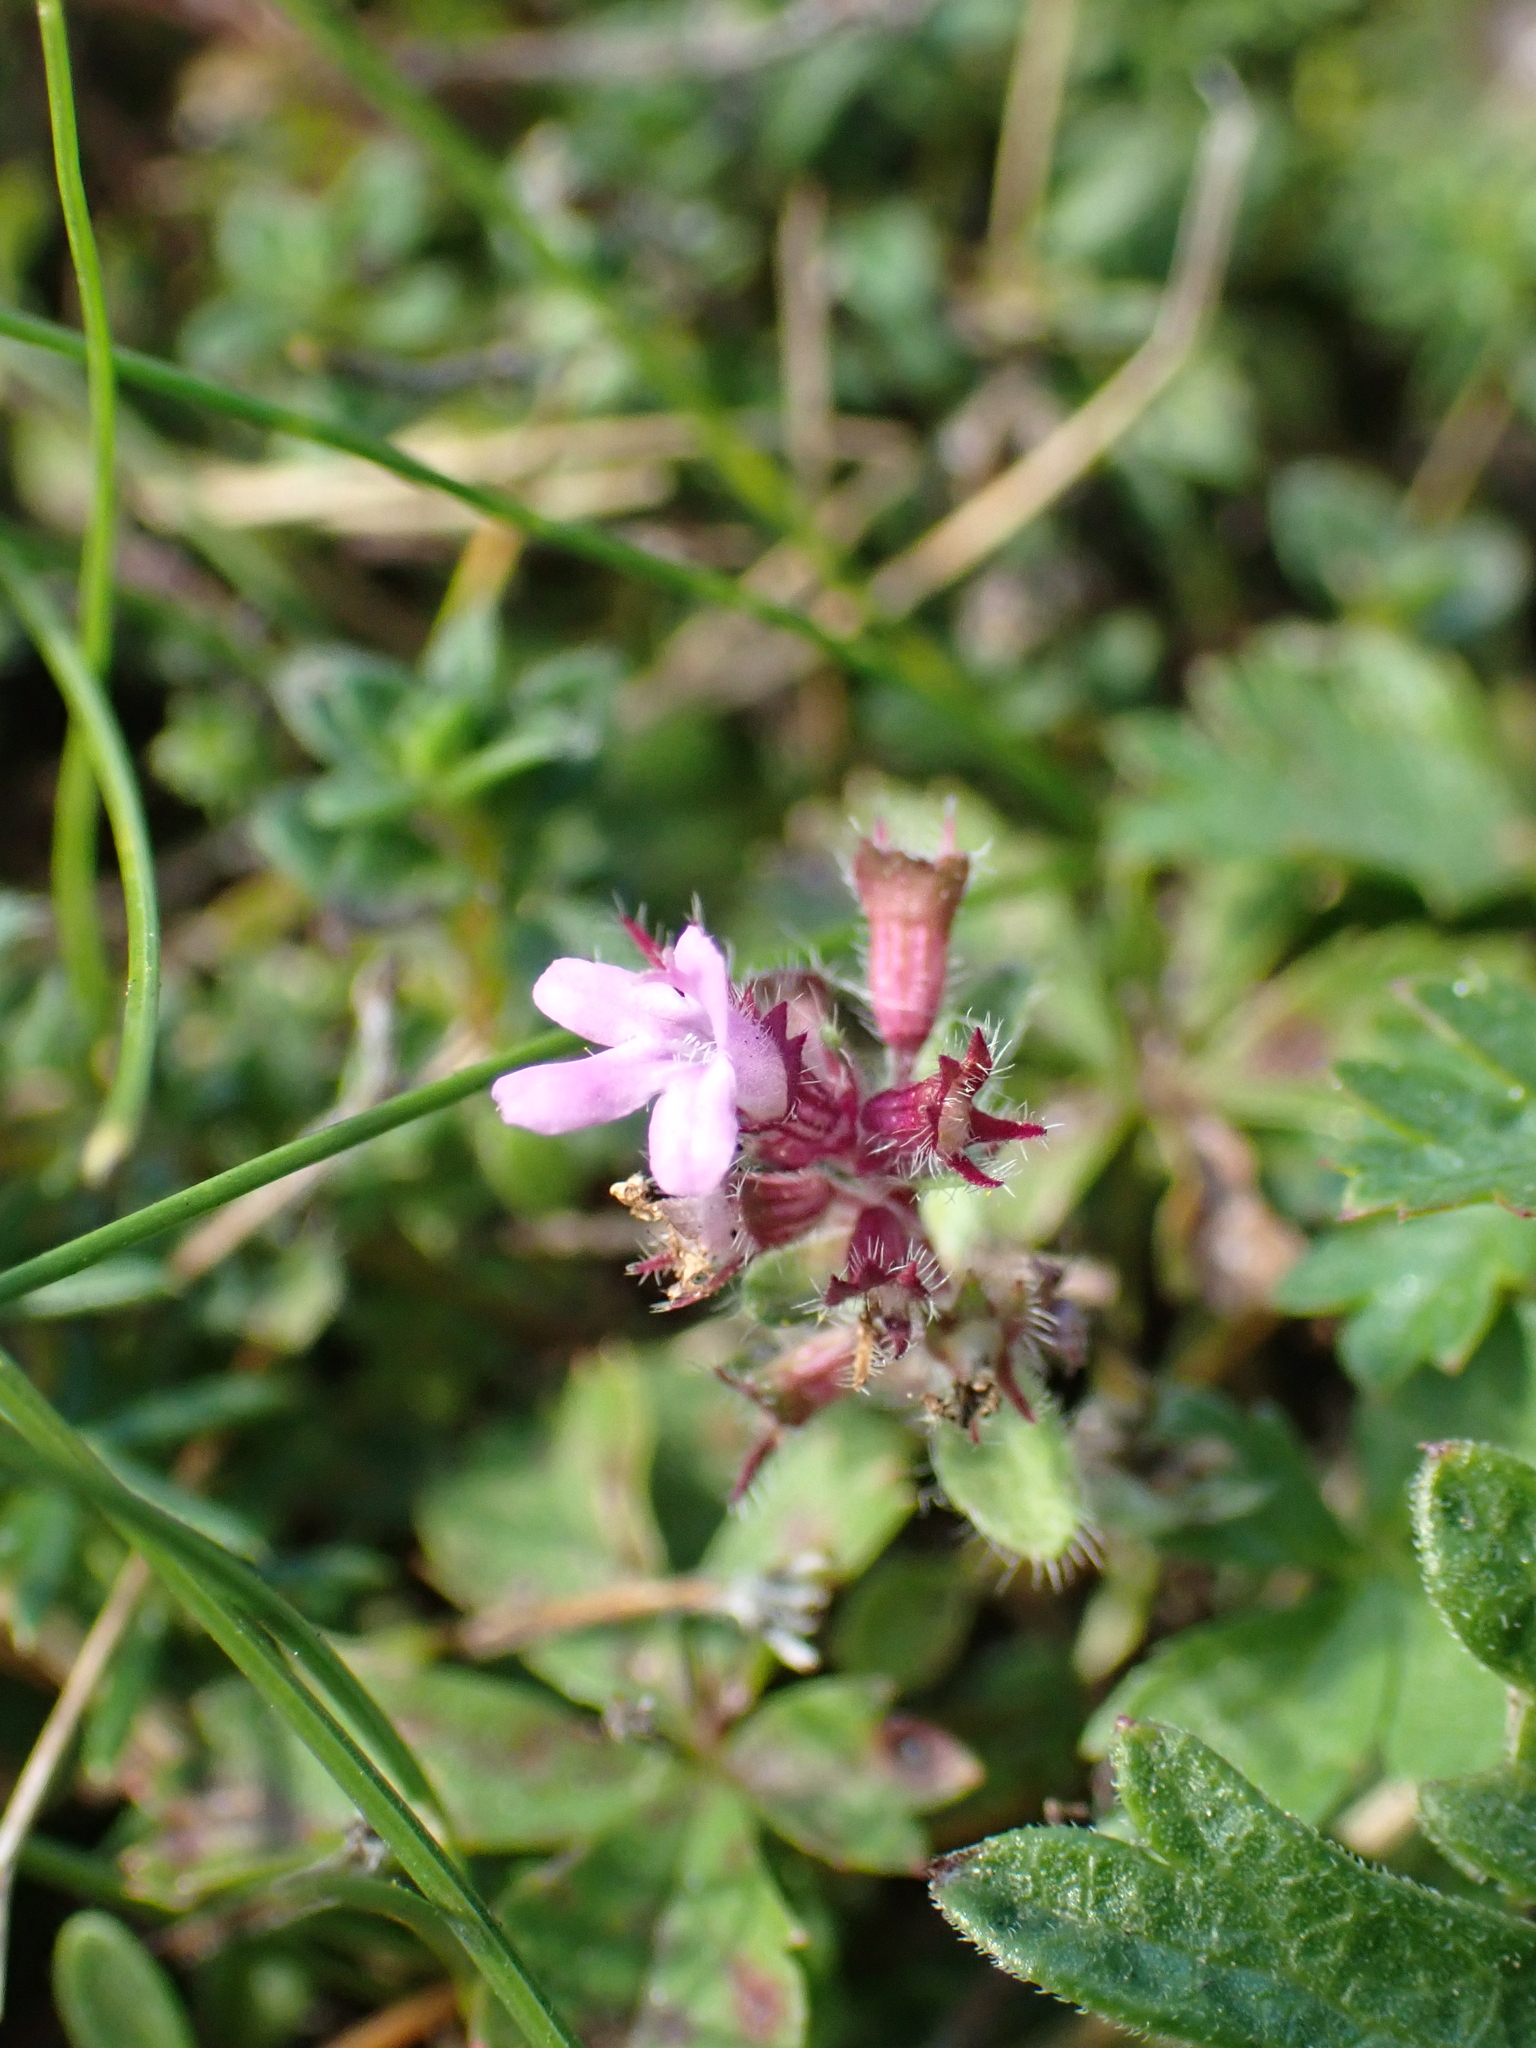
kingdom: Plantae
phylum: Tracheophyta
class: Magnoliopsida
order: Lamiales
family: Lamiaceae
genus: Thymus
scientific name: Thymus praecox
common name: Wild thyme
